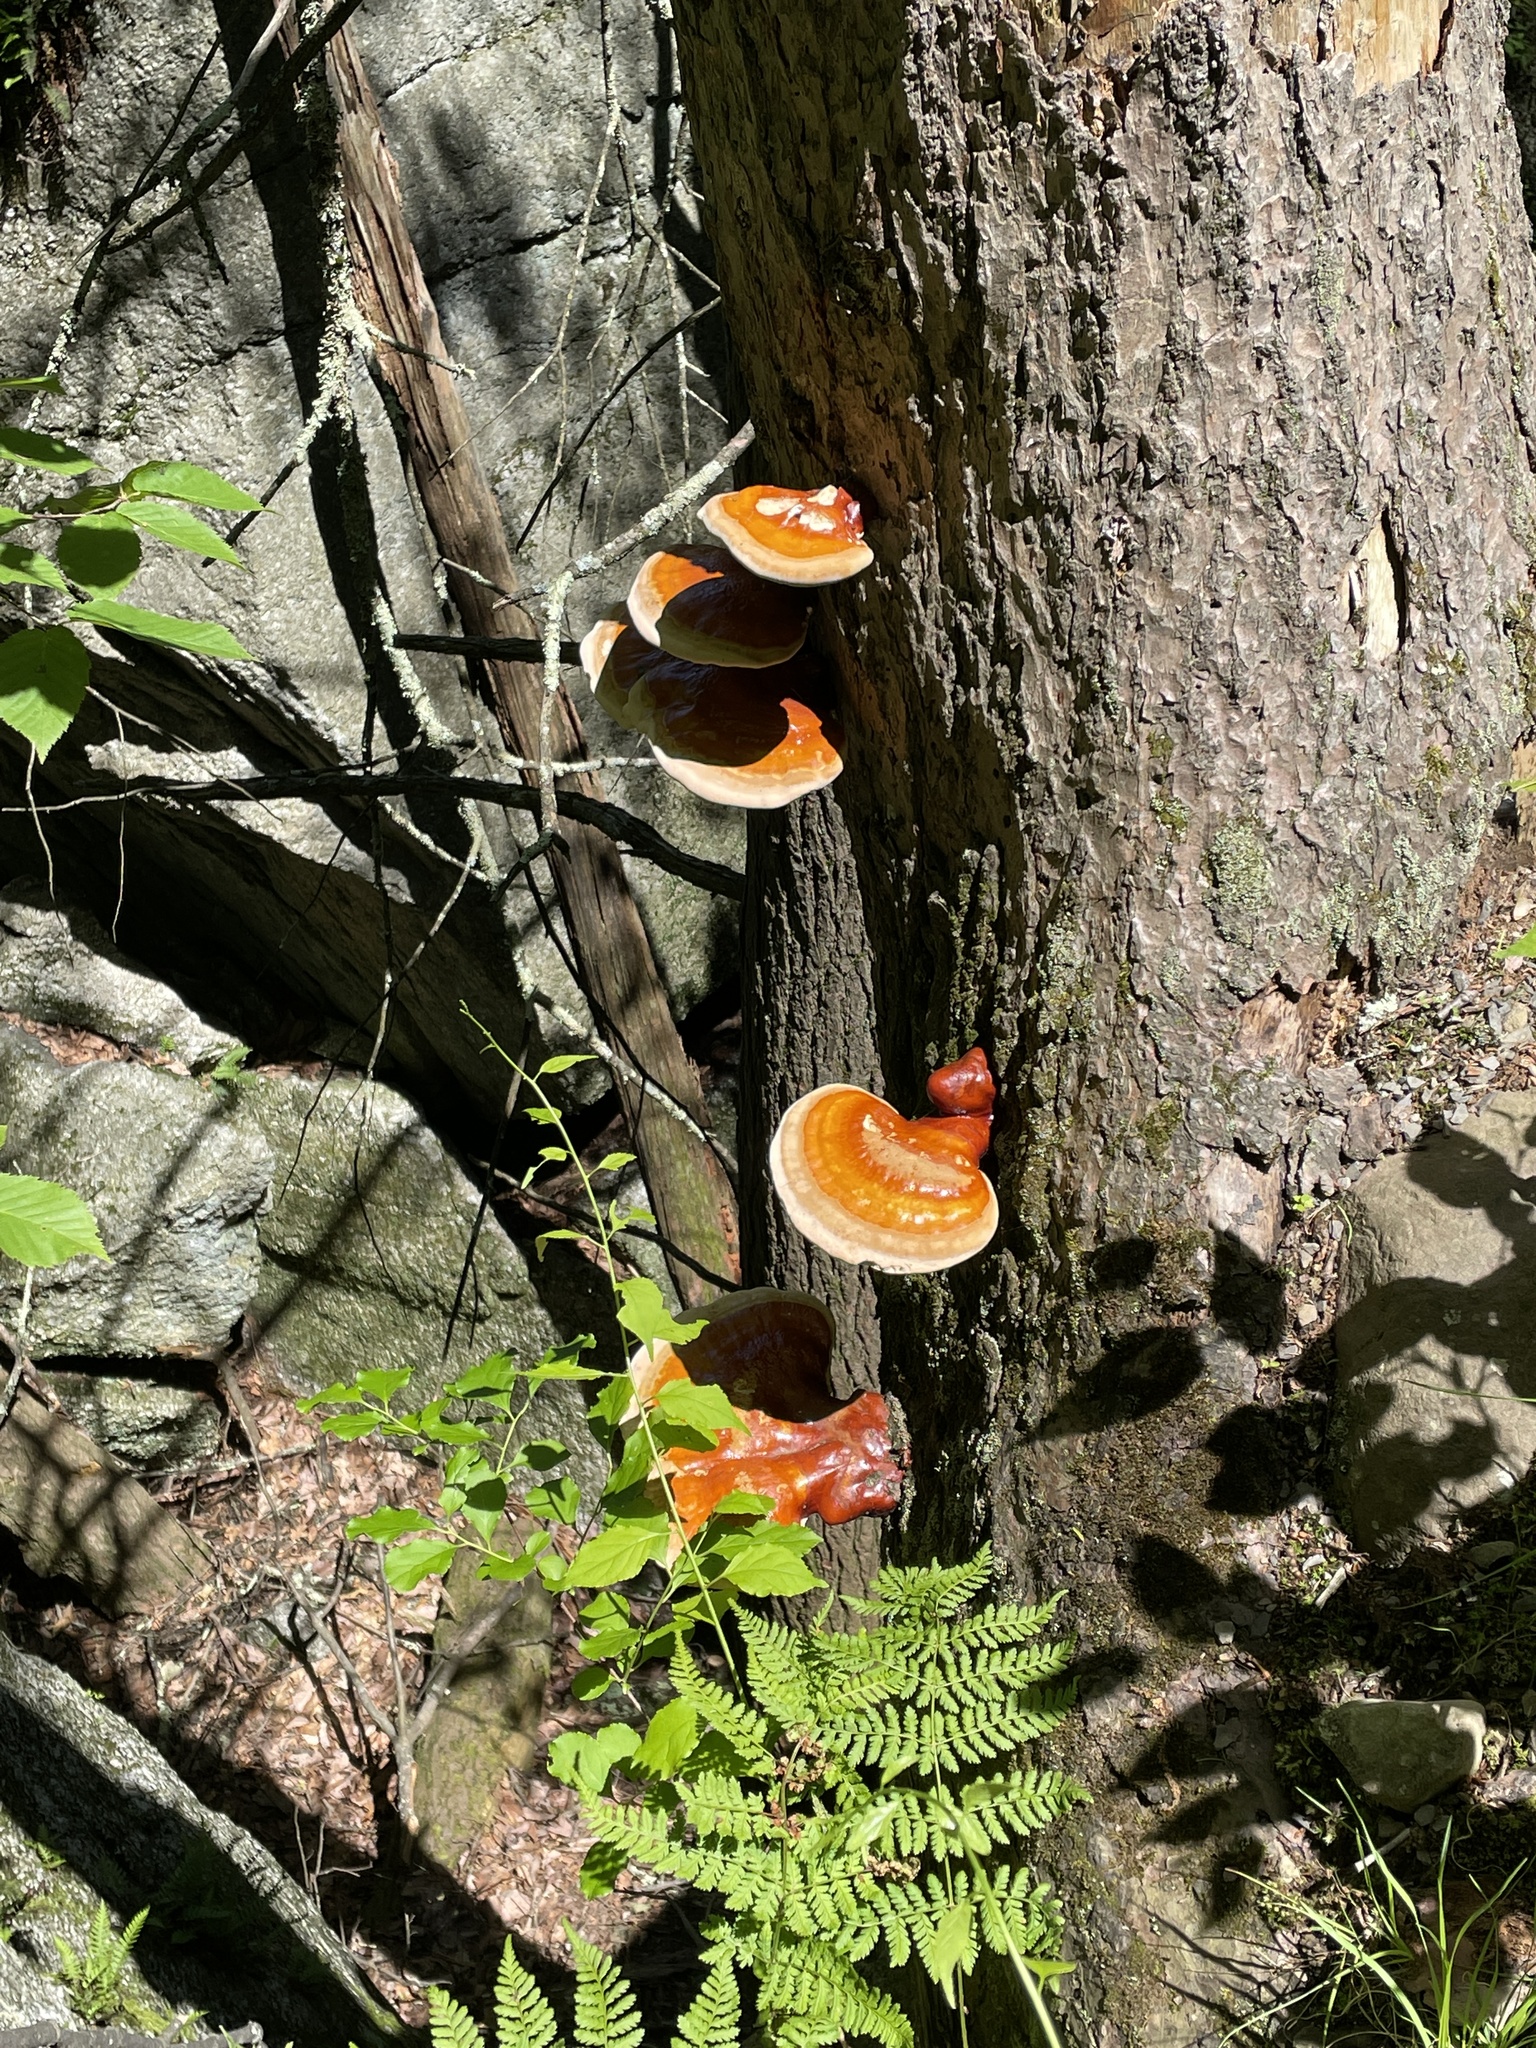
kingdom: Fungi
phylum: Basidiomycota
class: Agaricomycetes
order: Polyporales
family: Polyporaceae
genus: Ganoderma
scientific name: Ganoderma tsugae
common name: Hemlock varnish shelf
